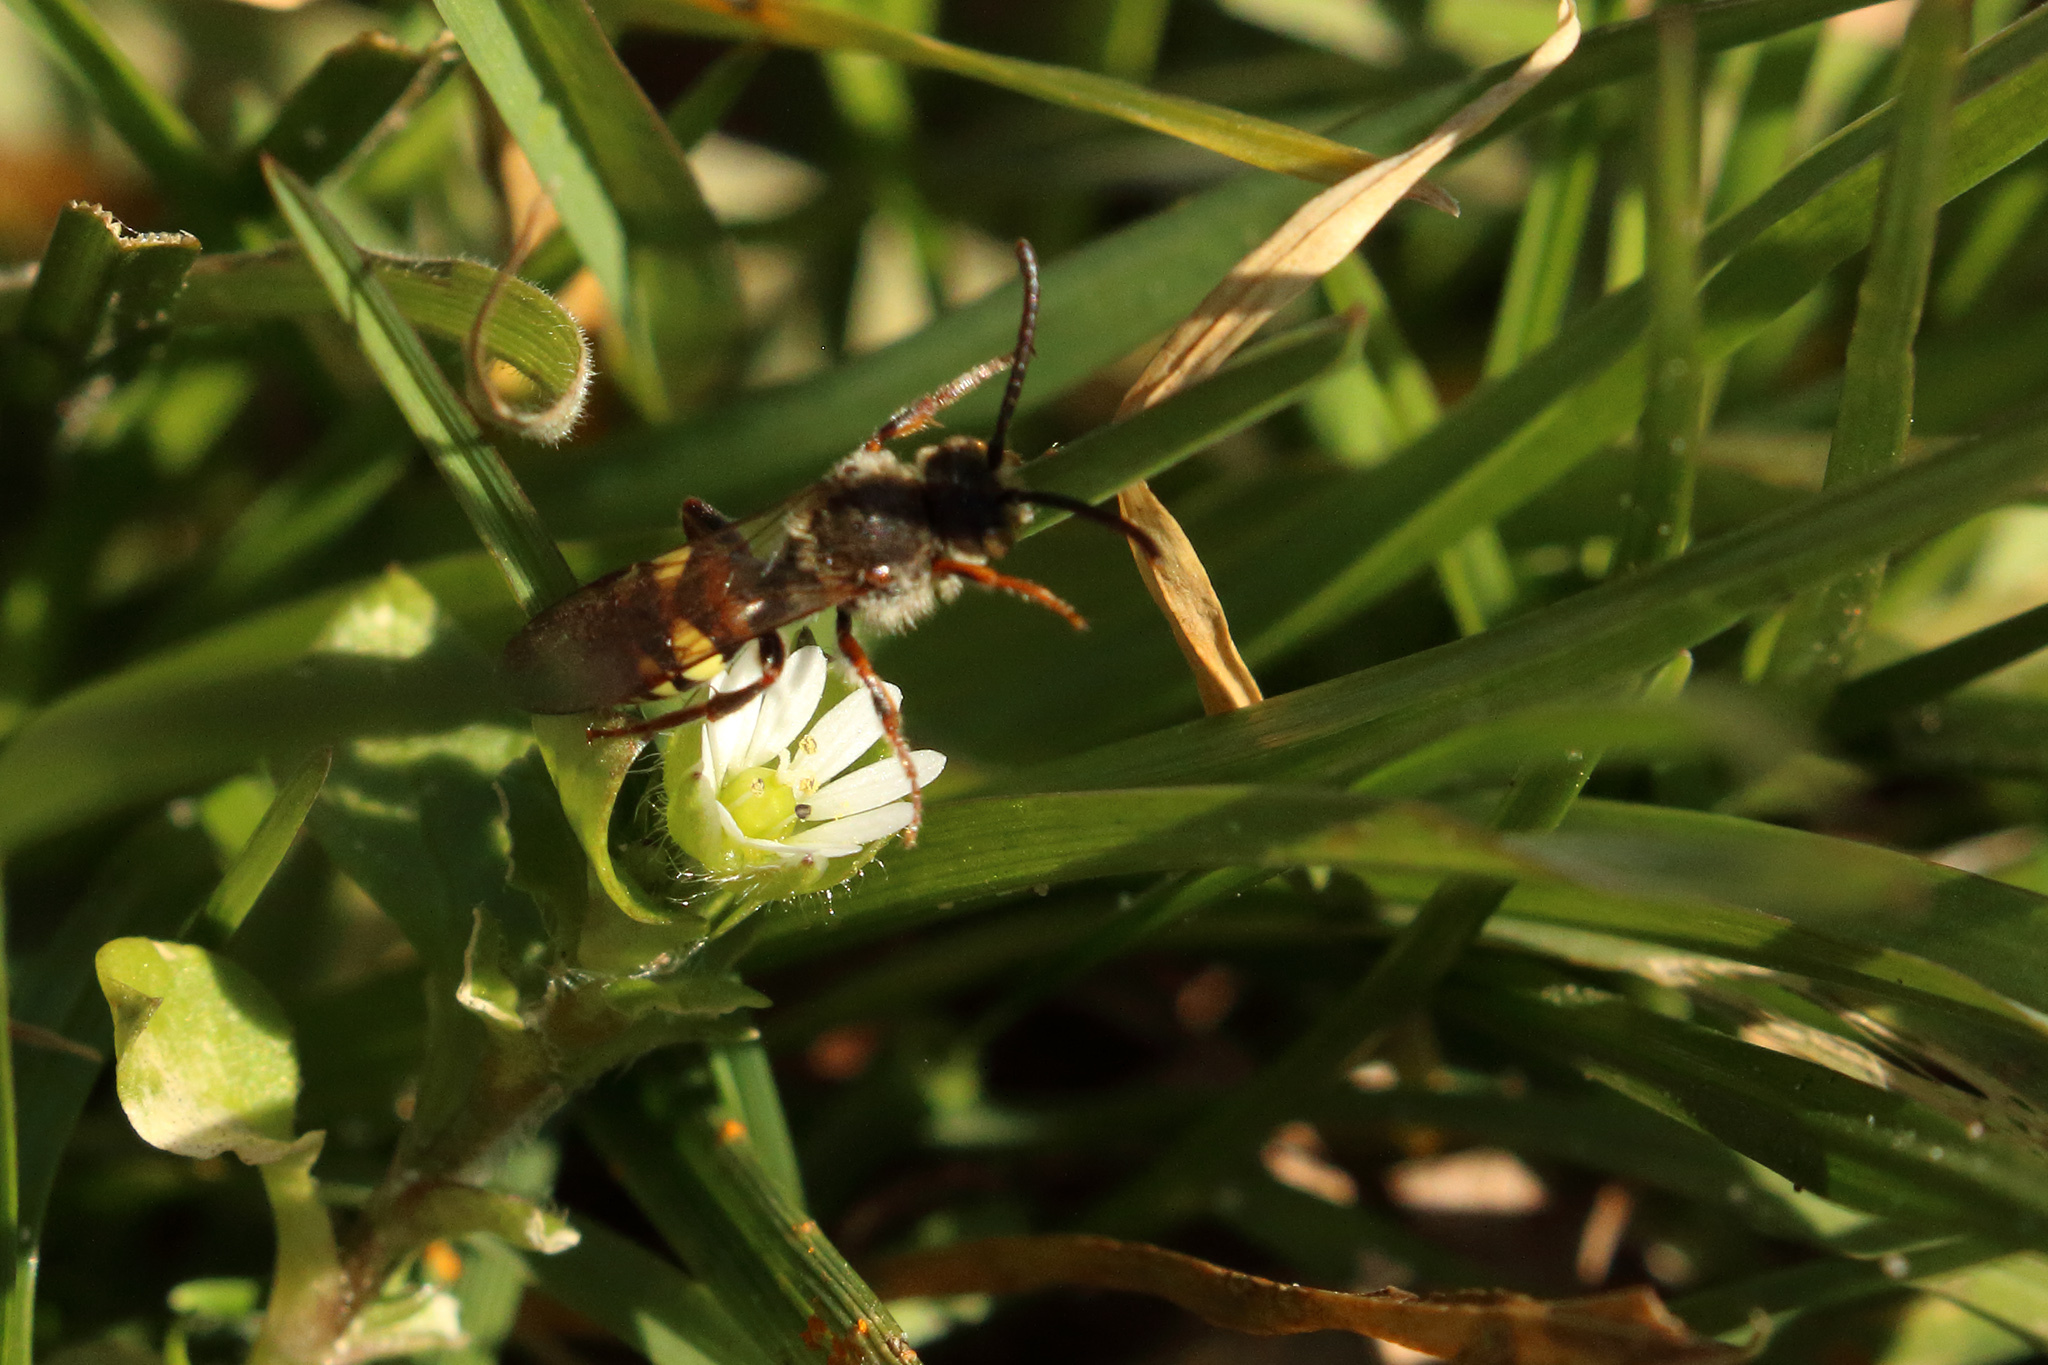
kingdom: Animalia
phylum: Arthropoda
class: Insecta
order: Hymenoptera
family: Apidae
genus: Nomada
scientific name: Nomada leucophthalma
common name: Early nomad bee
